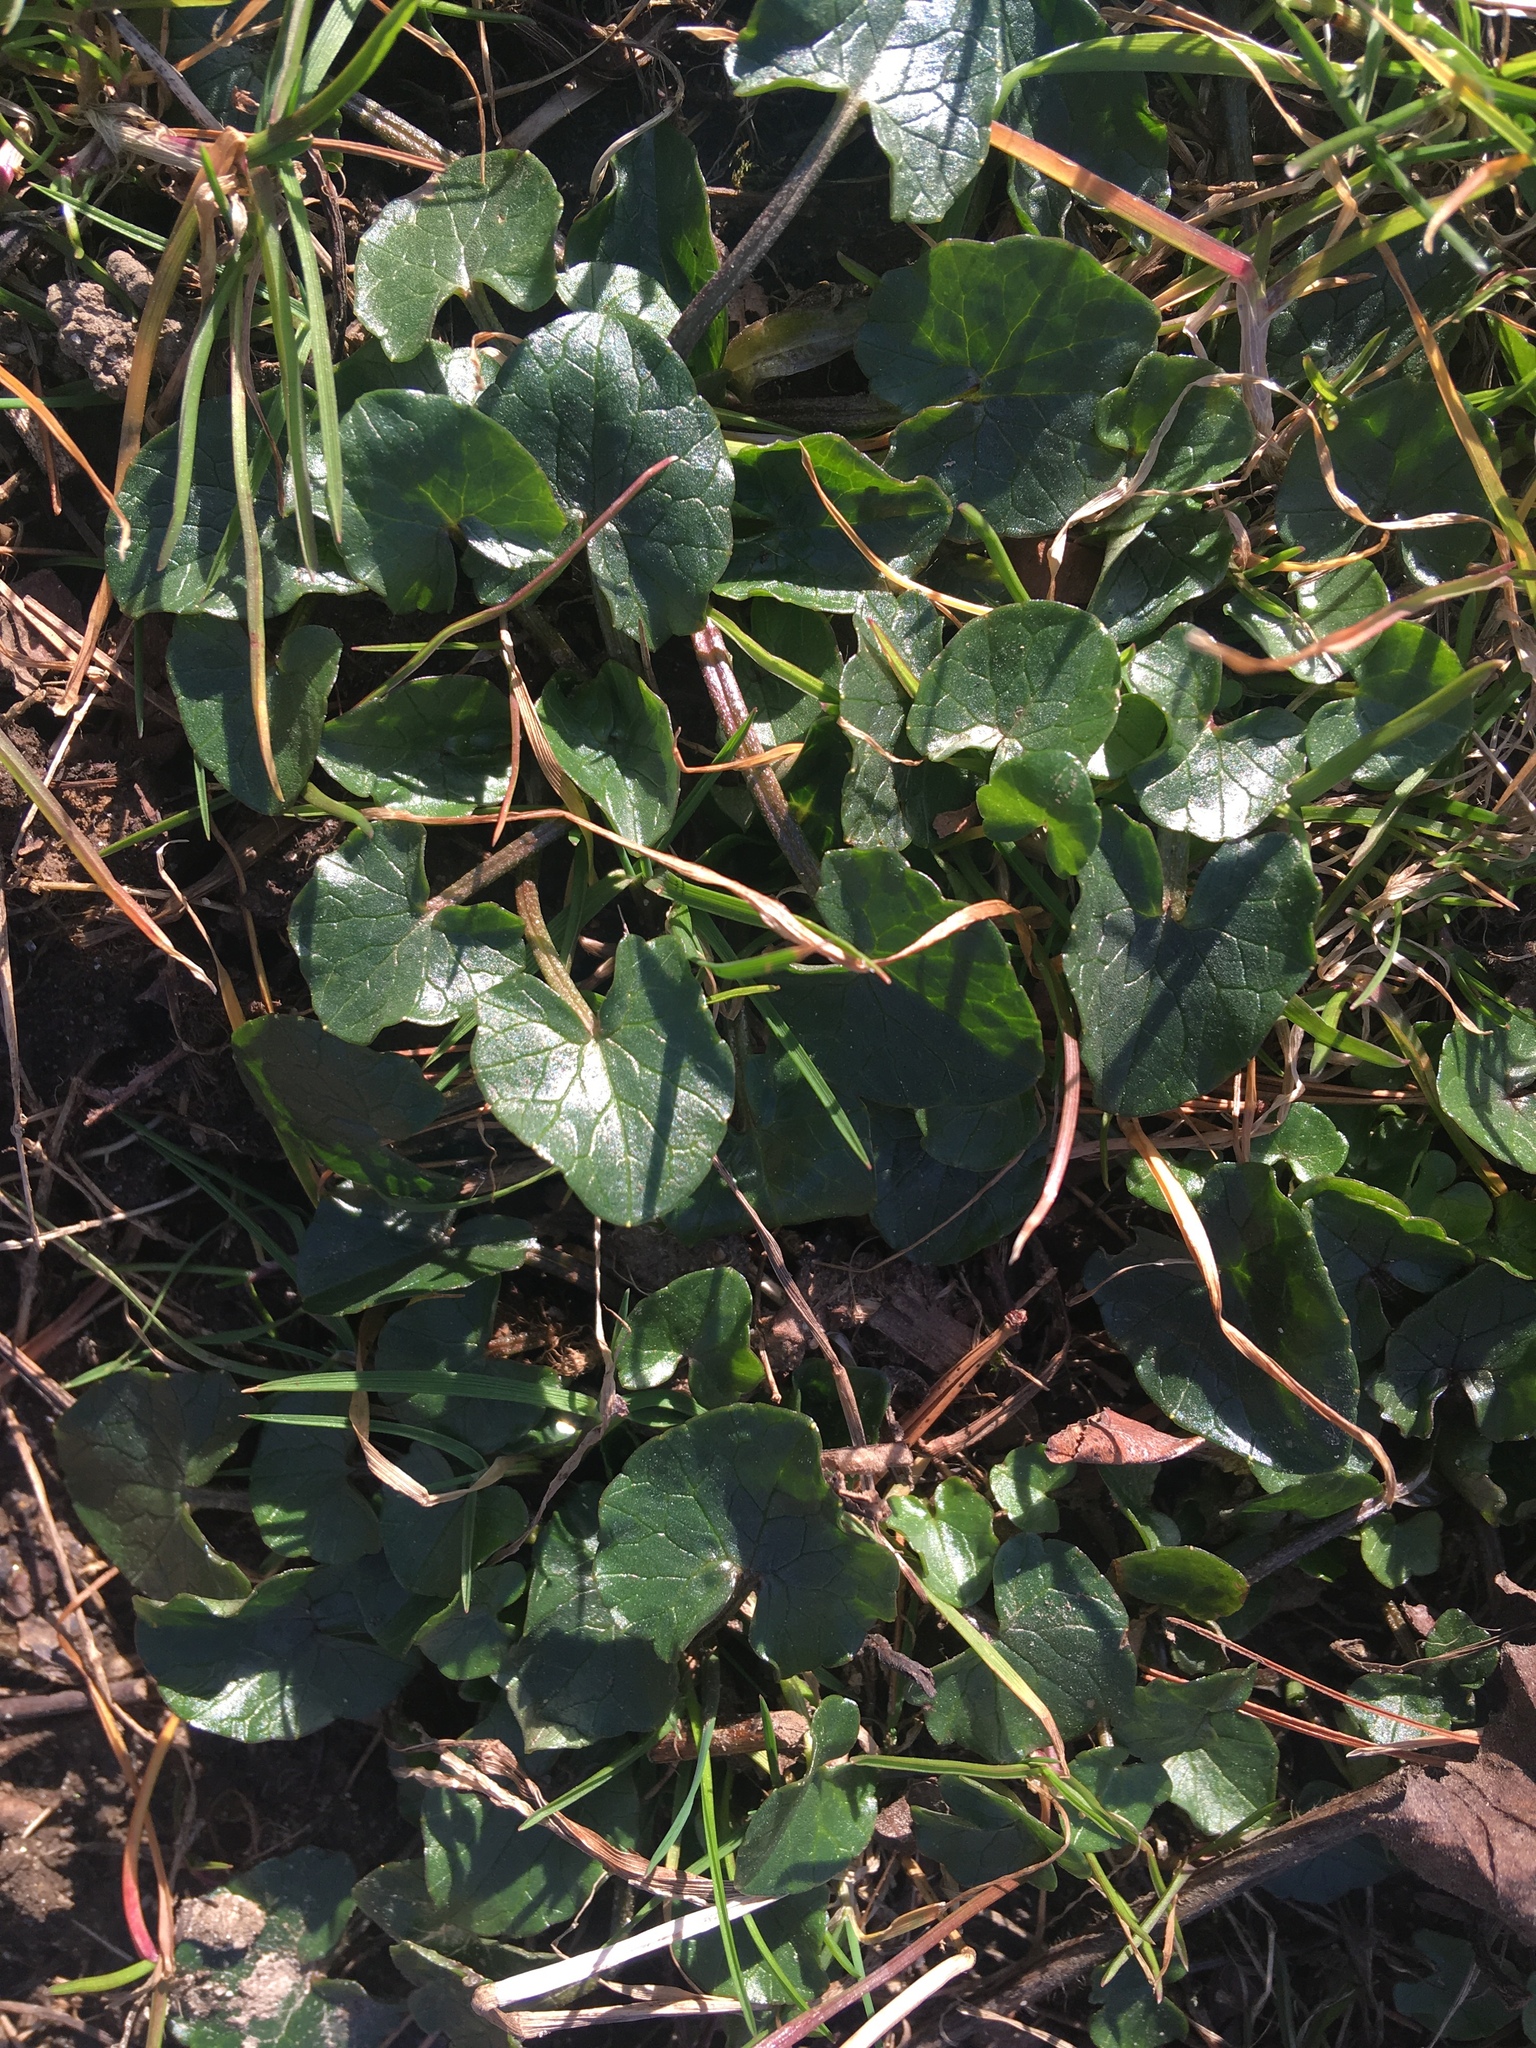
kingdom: Plantae
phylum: Tracheophyta
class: Magnoliopsida
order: Ranunculales
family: Ranunculaceae
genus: Ficaria
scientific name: Ficaria verna
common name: Lesser celandine
